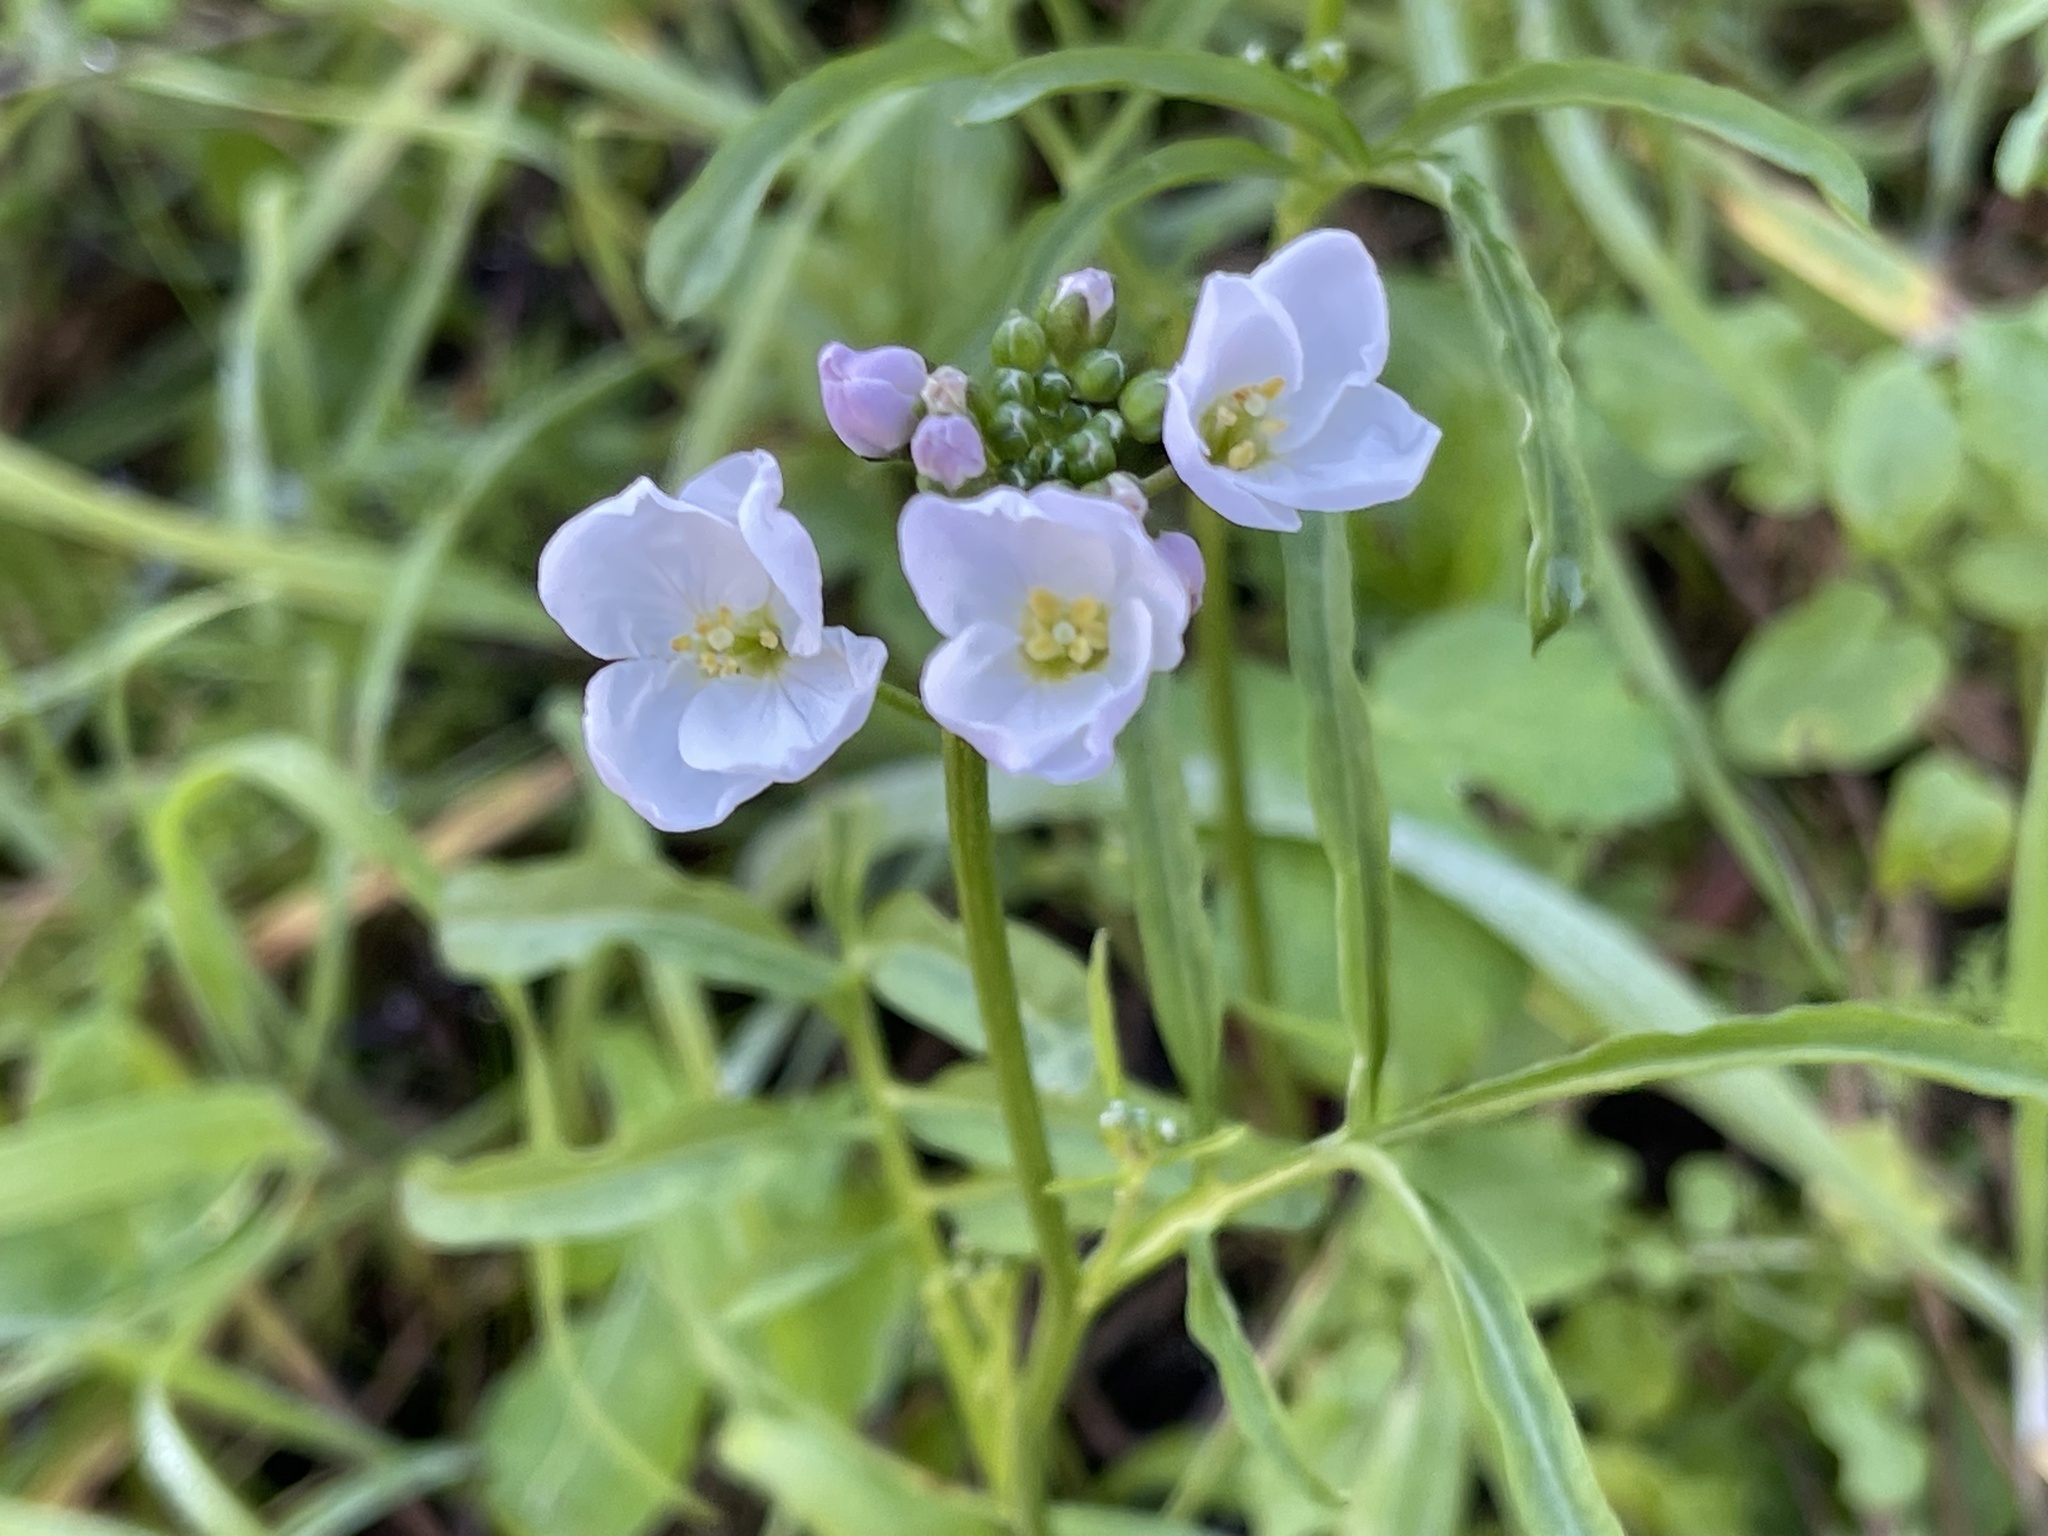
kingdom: Plantae
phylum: Tracheophyta
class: Magnoliopsida
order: Brassicales
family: Brassicaceae
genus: Cardamine
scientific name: Cardamine californica
